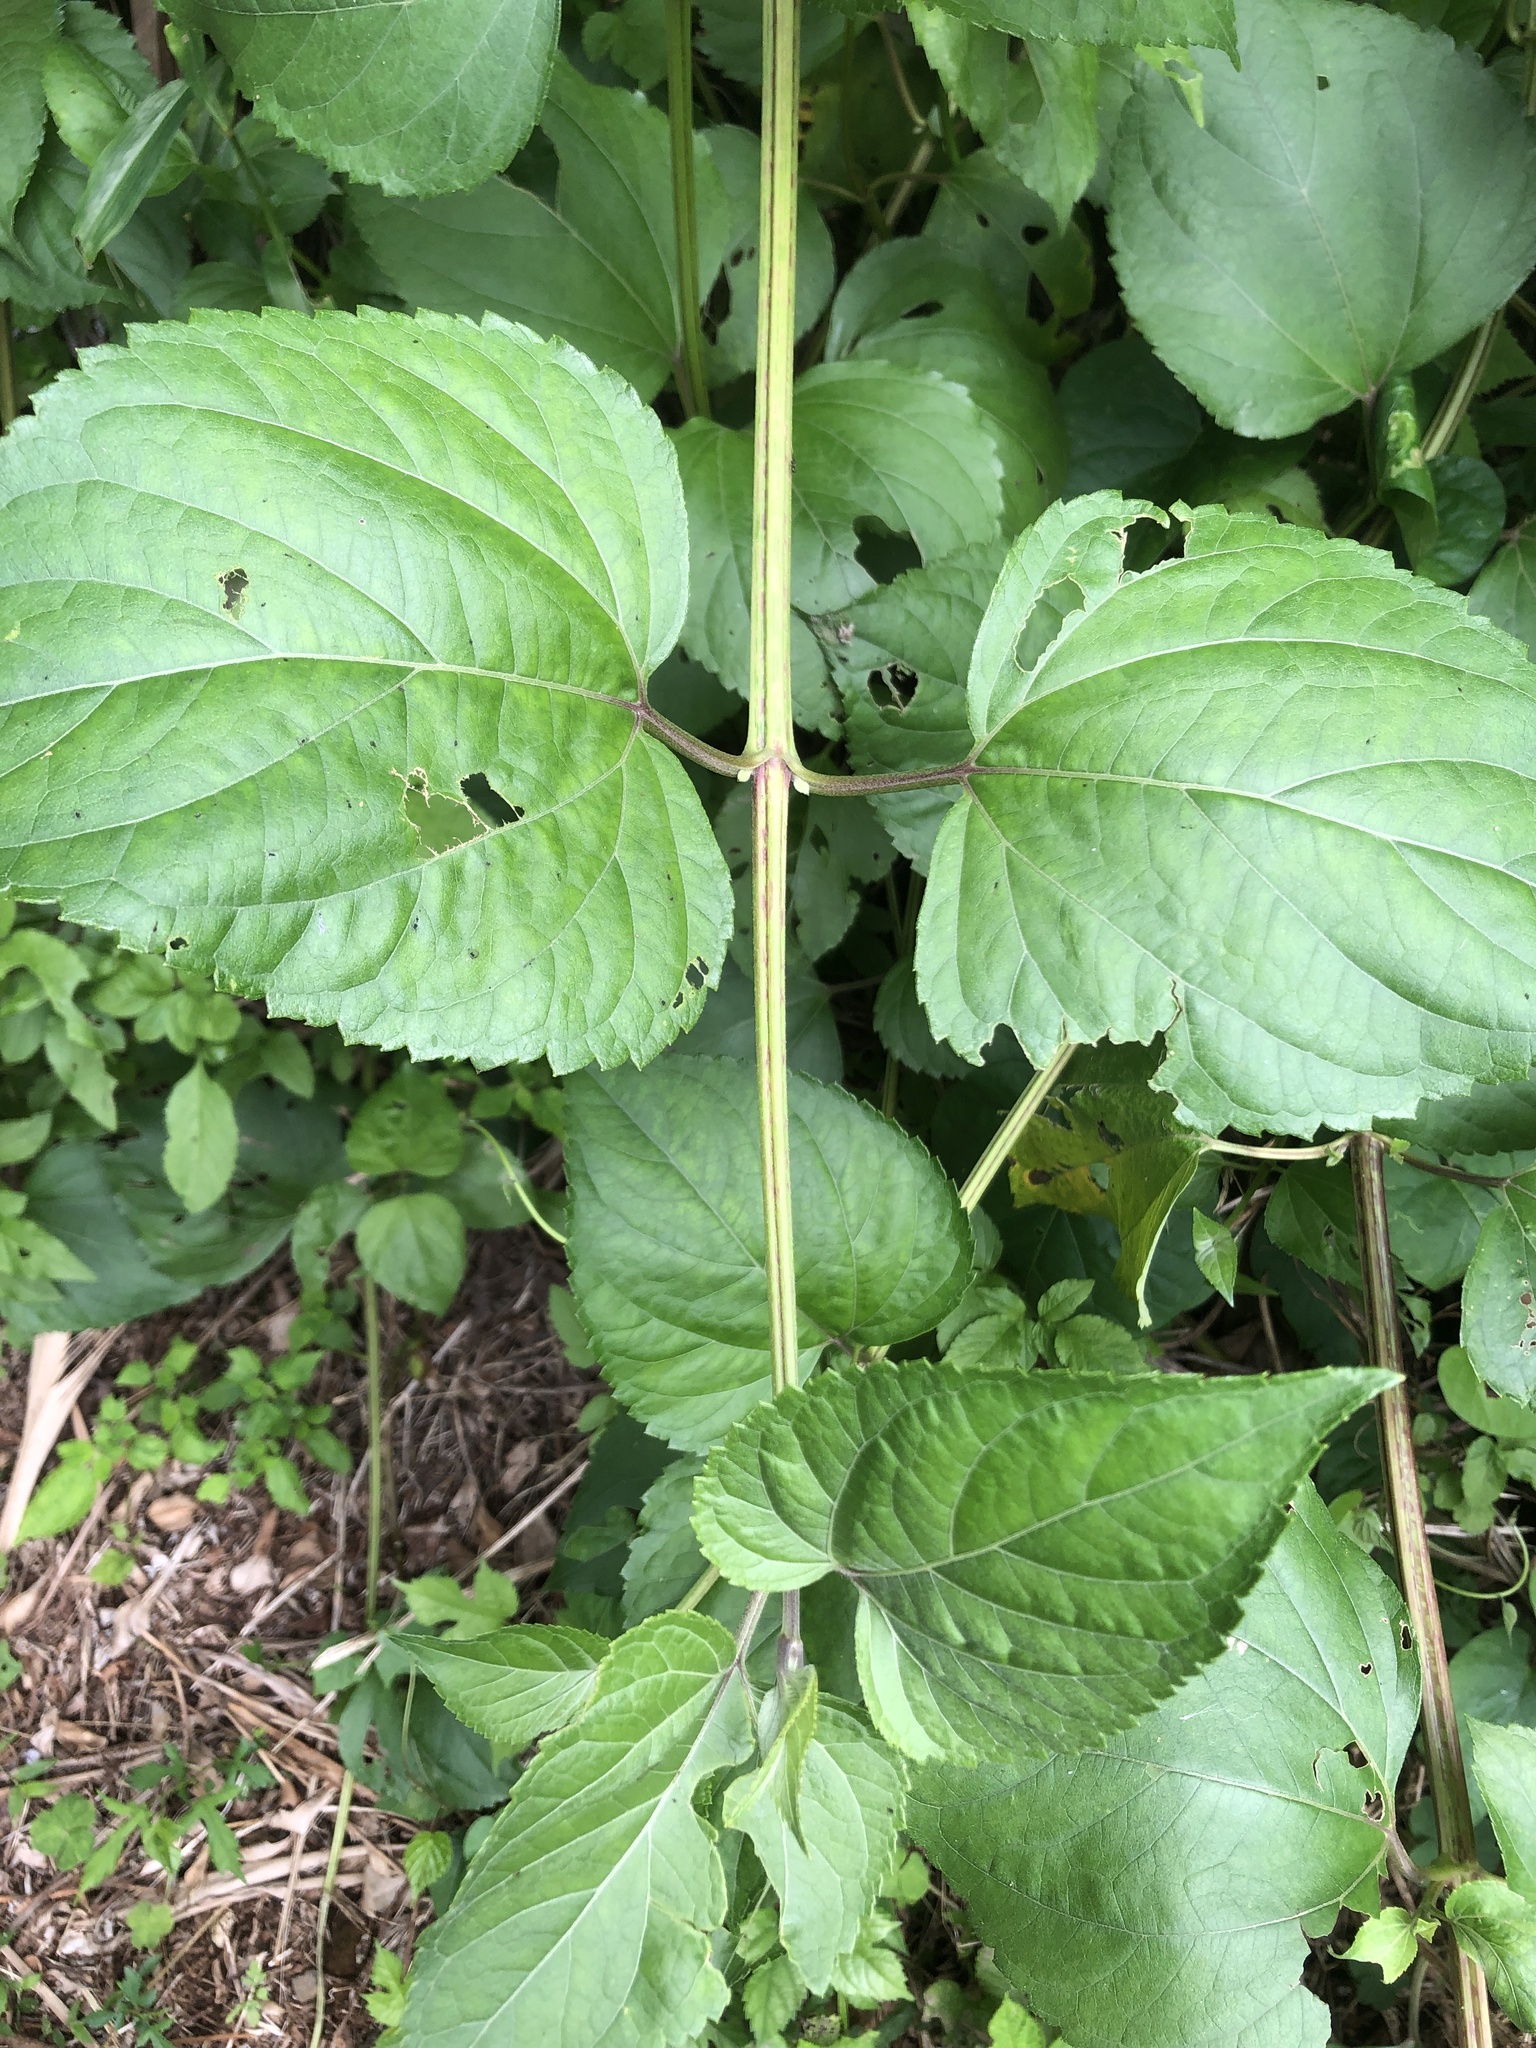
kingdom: Plantae
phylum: Tracheophyta
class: Magnoliopsida
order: Asterales
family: Asteraceae
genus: Wollastonia
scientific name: Wollastonia biflora
